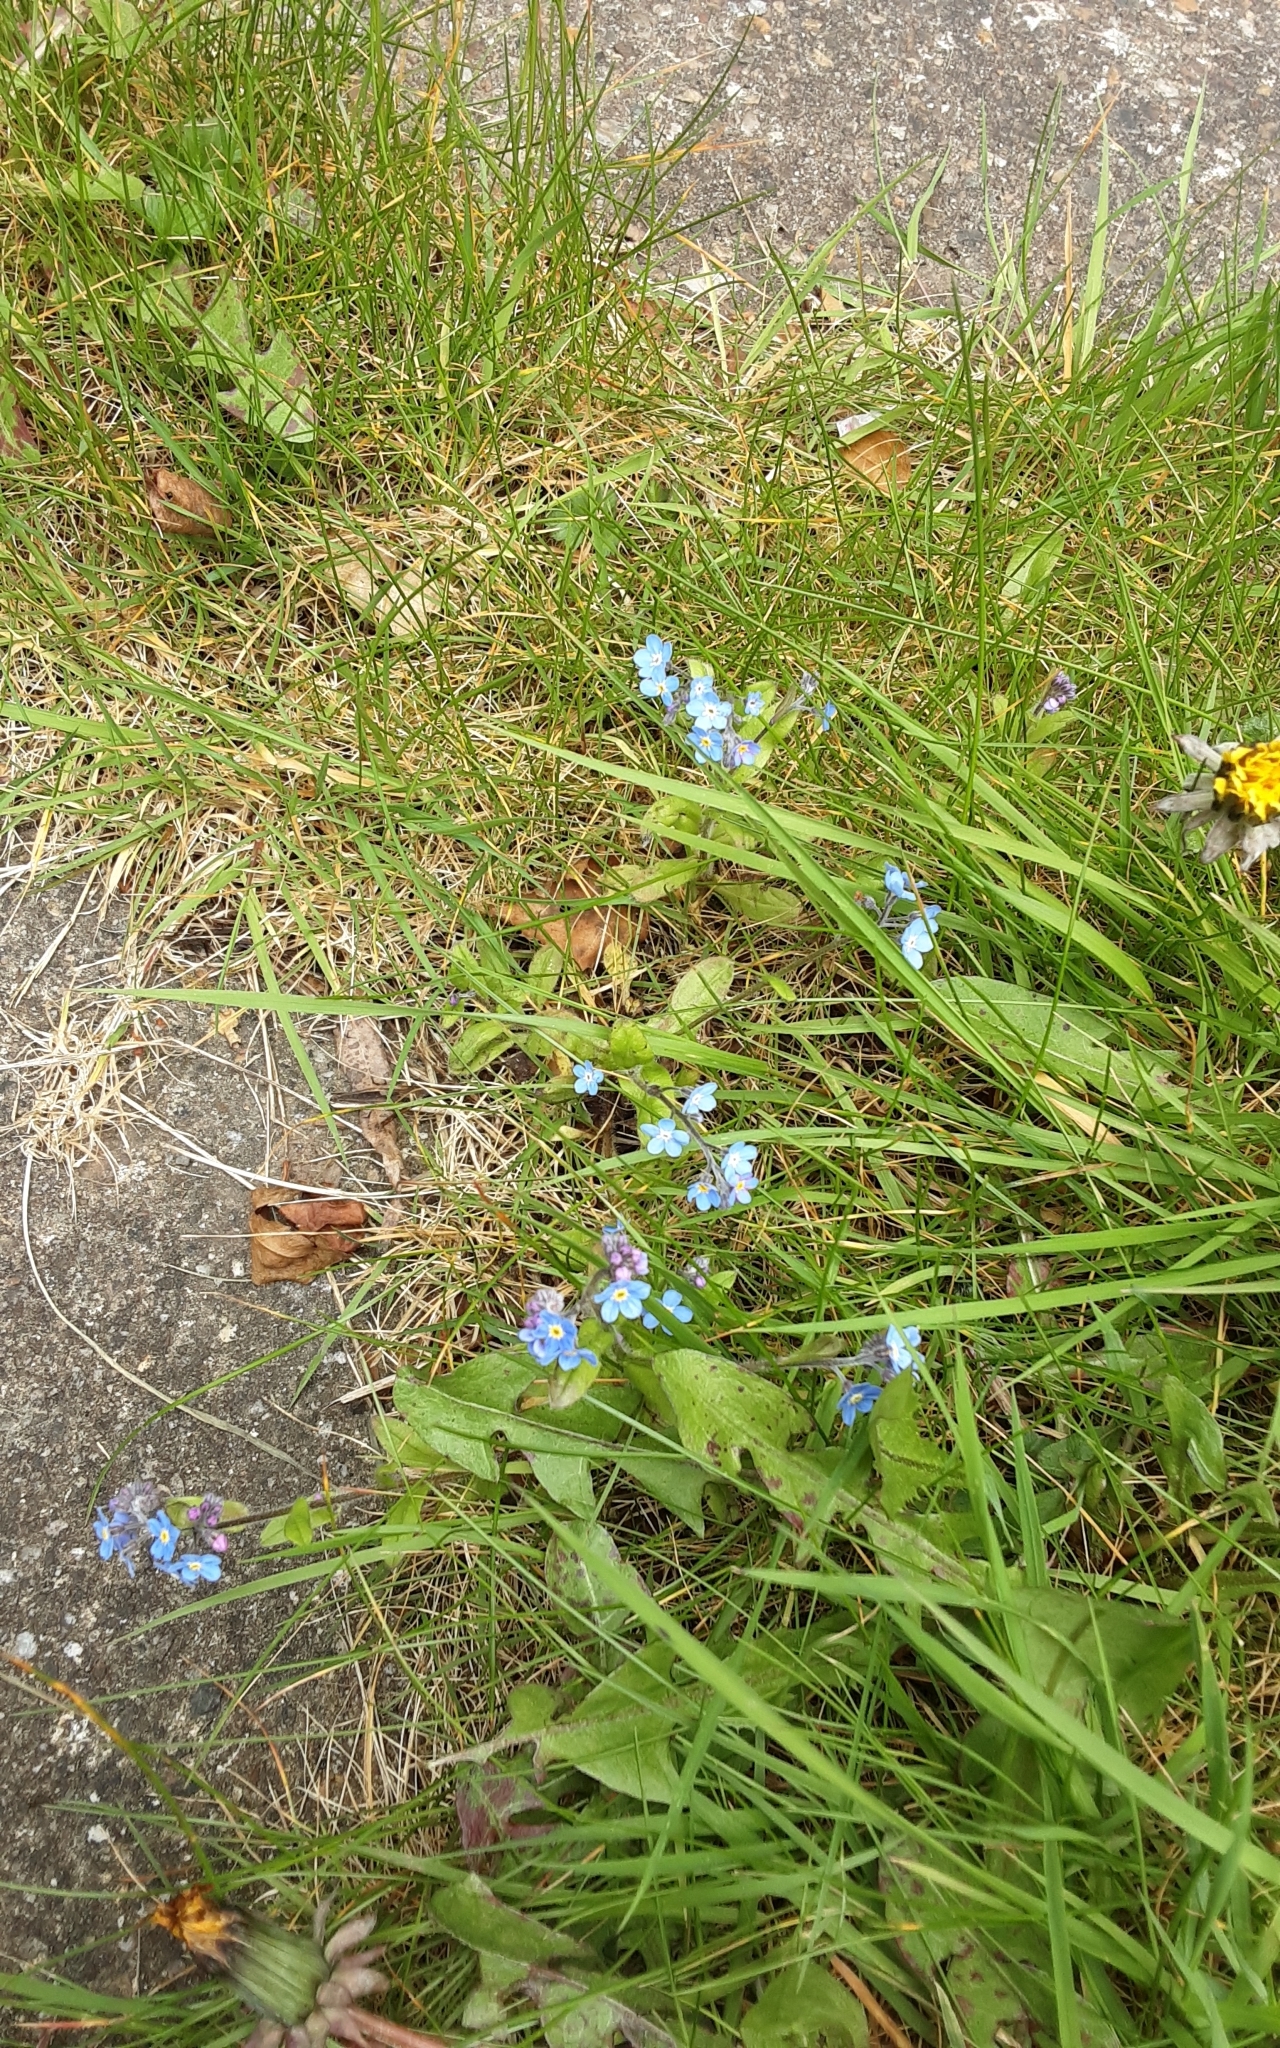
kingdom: Plantae
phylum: Tracheophyta
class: Magnoliopsida
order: Boraginales
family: Boraginaceae
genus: Myosotis
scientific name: Myosotis sylvatica
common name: Wood forget-me-not
